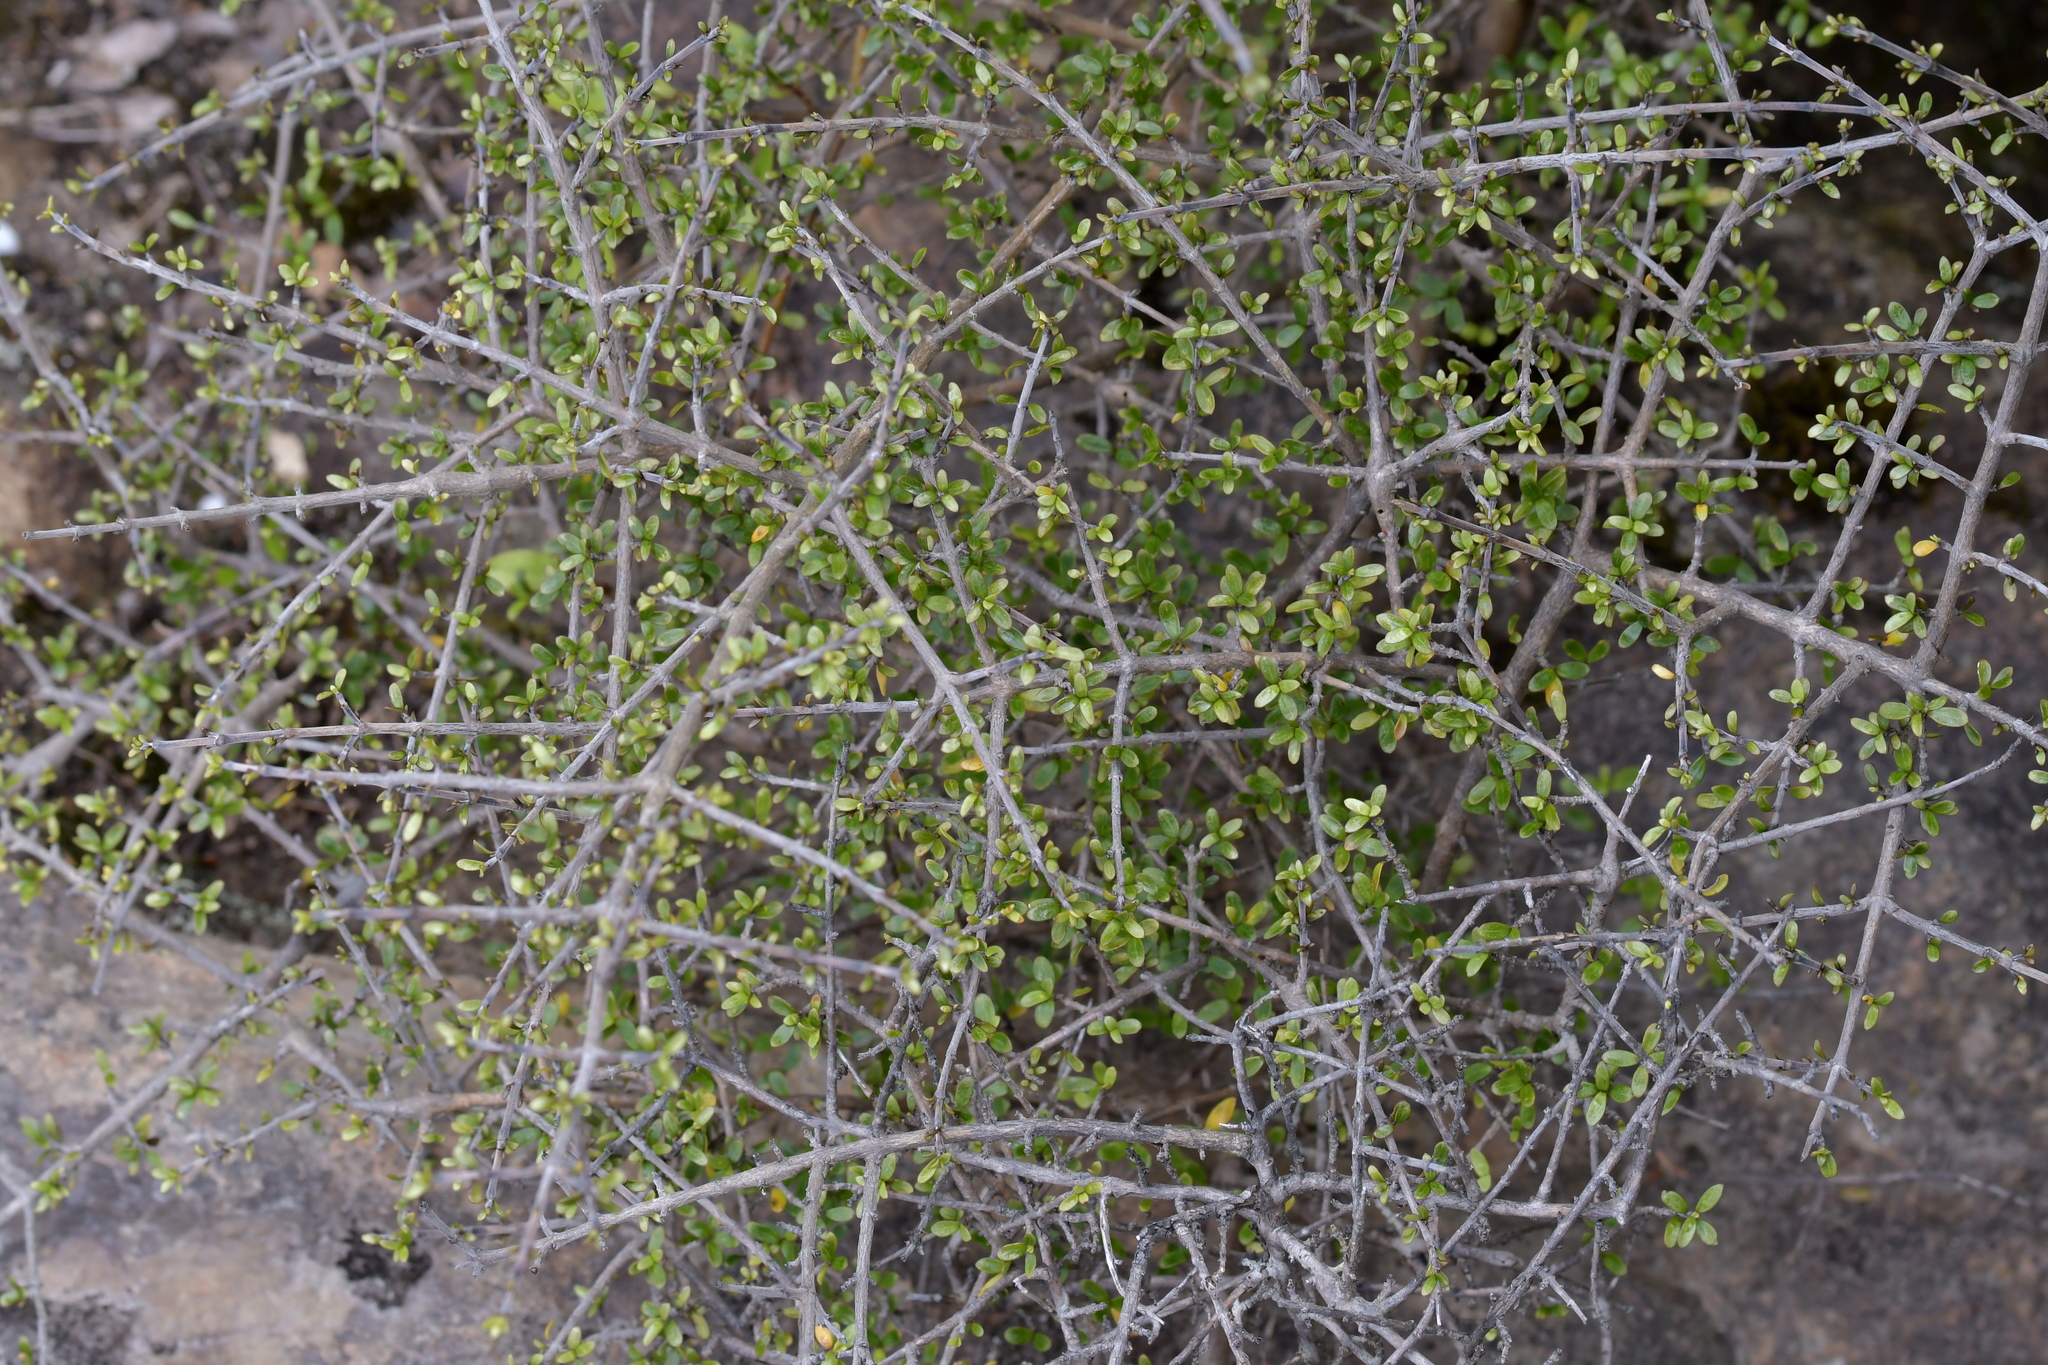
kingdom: Plantae
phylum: Tracheophyta
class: Magnoliopsida
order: Gentianales
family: Rubiaceae
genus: Coprosma
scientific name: Coprosma dumosa
